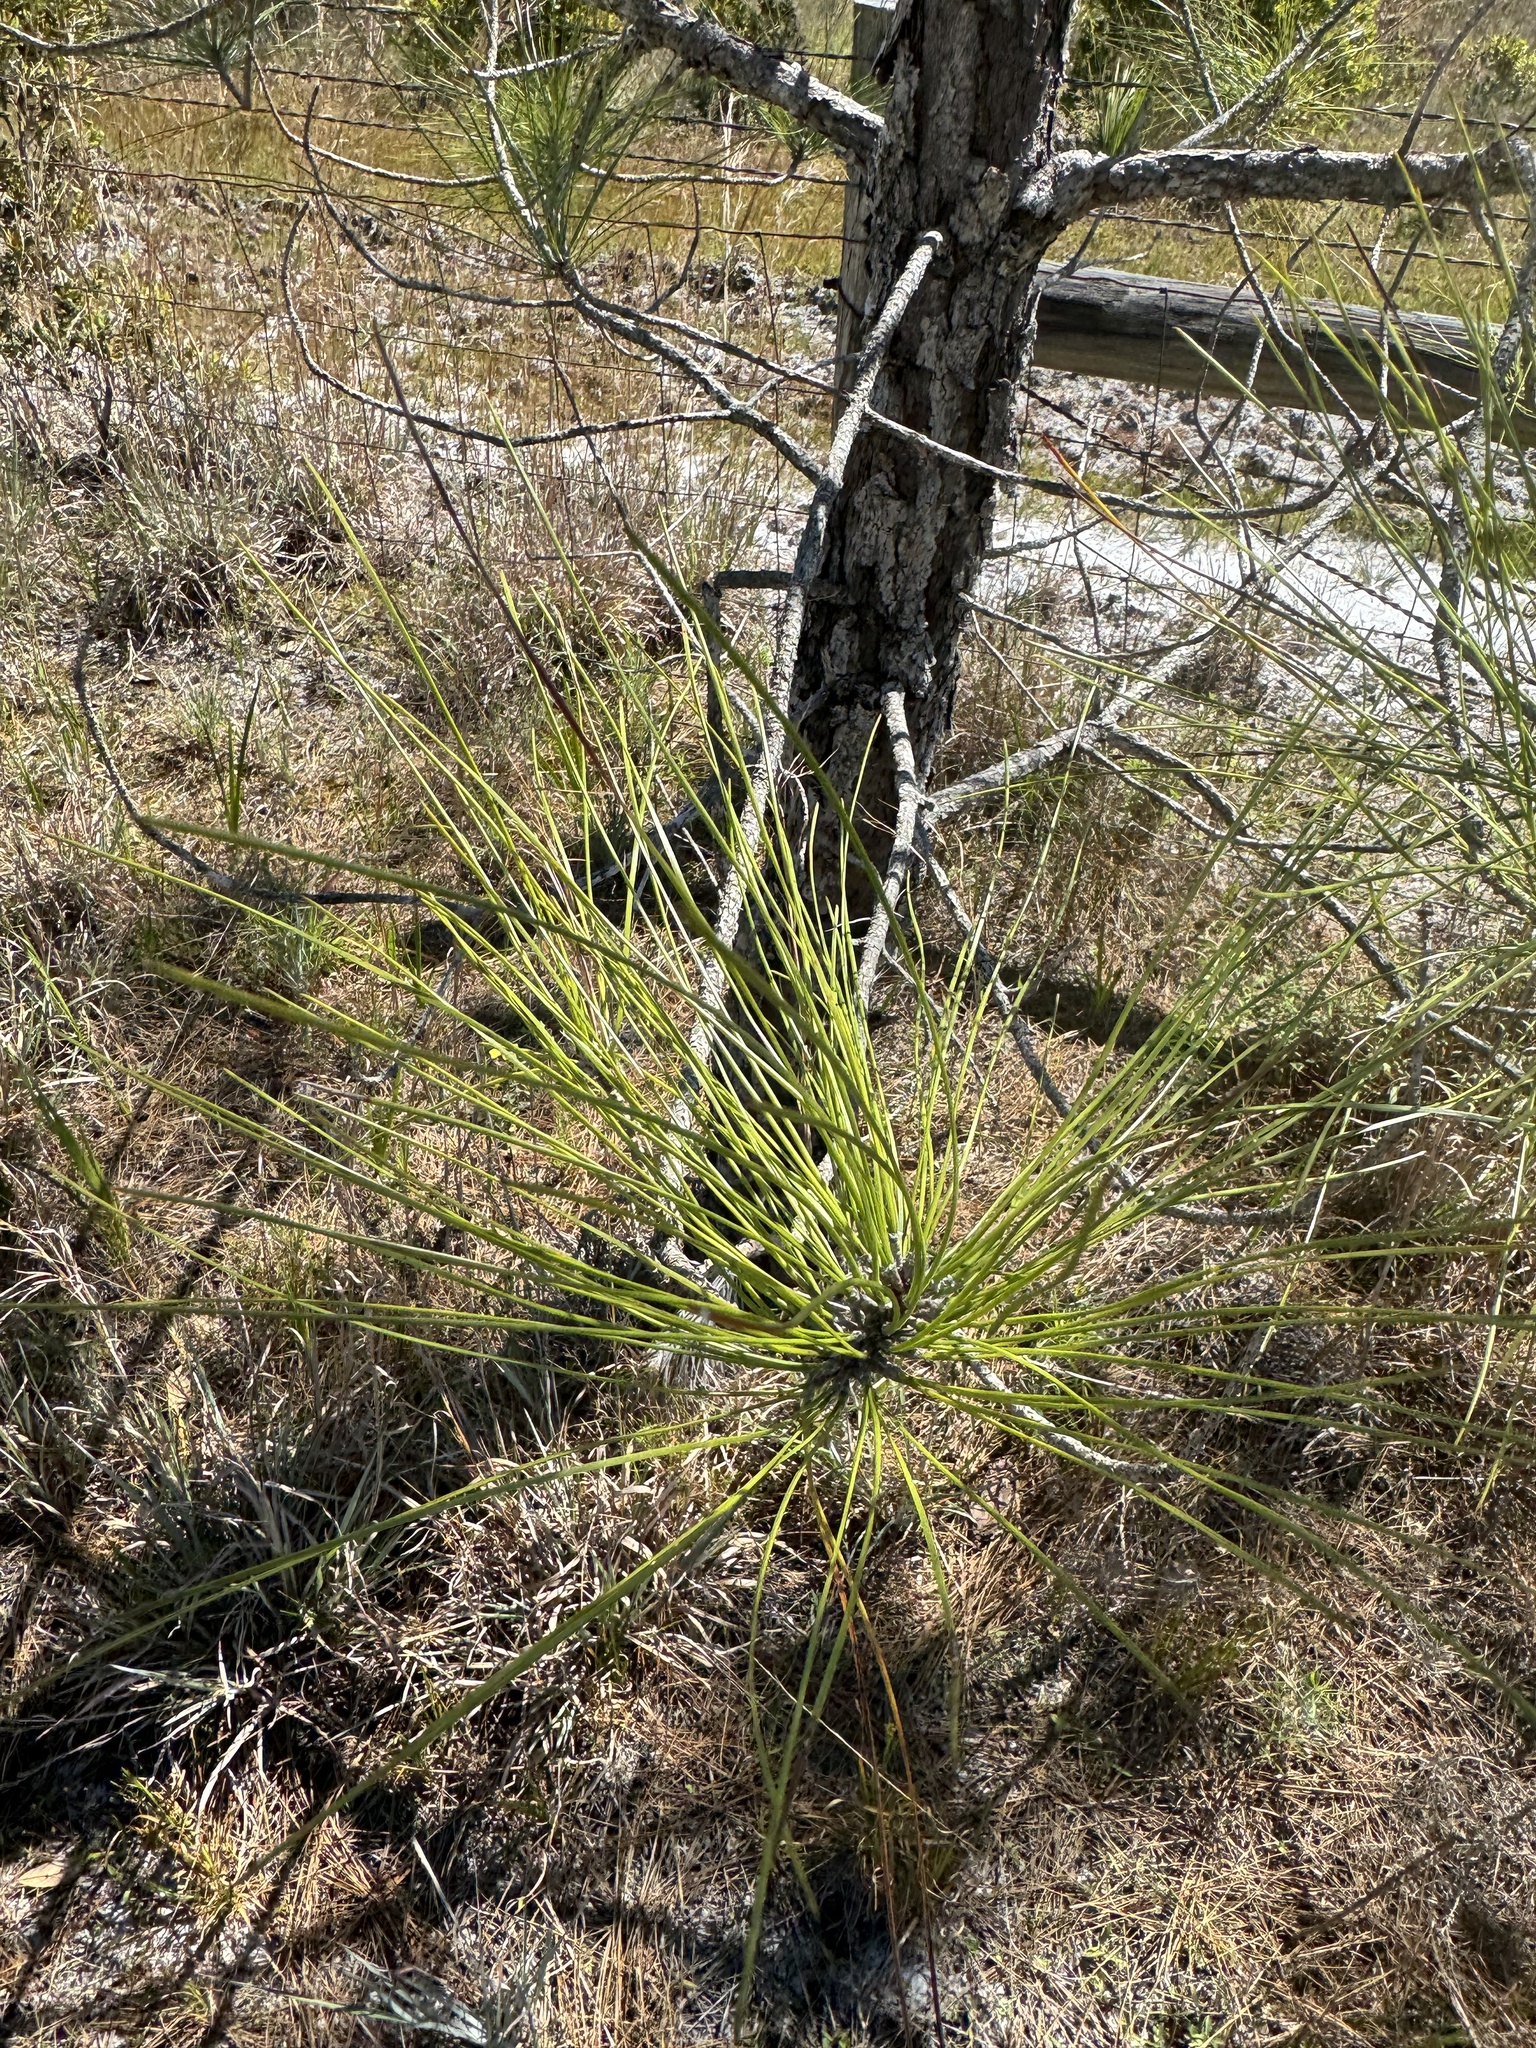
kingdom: Plantae
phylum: Tracheophyta
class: Pinopsida
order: Pinales
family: Pinaceae
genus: Pinus
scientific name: Pinus elliottii
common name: Slash pine
